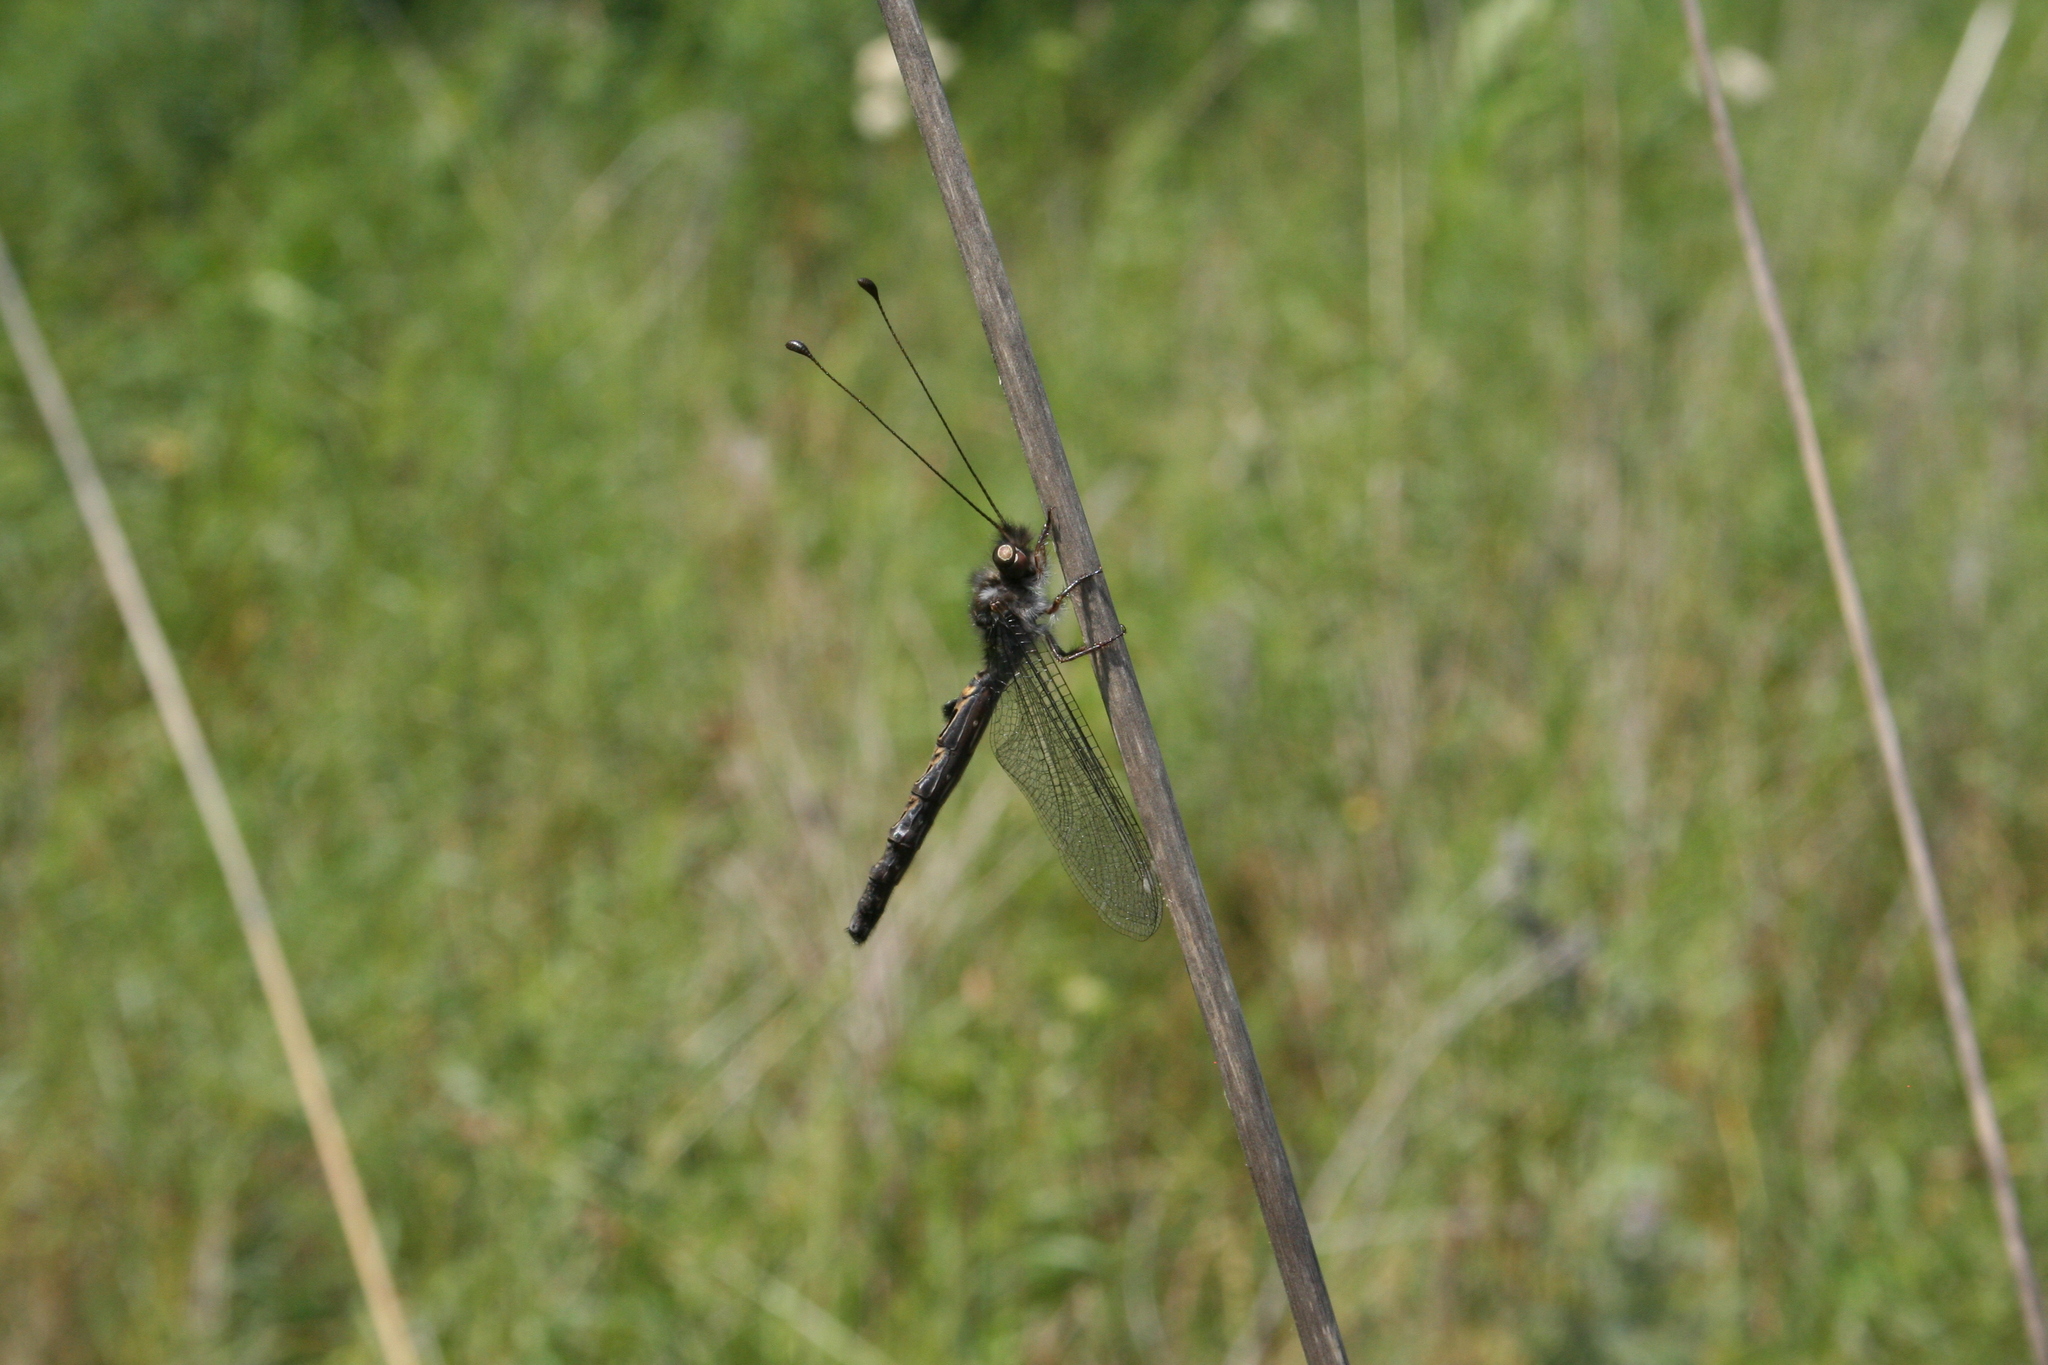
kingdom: Animalia
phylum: Arthropoda
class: Insecta
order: Neuroptera
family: Ascalaphidae
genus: Ululodes
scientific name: Ululodes quadripunctatus
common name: Four-spotted owlfly
